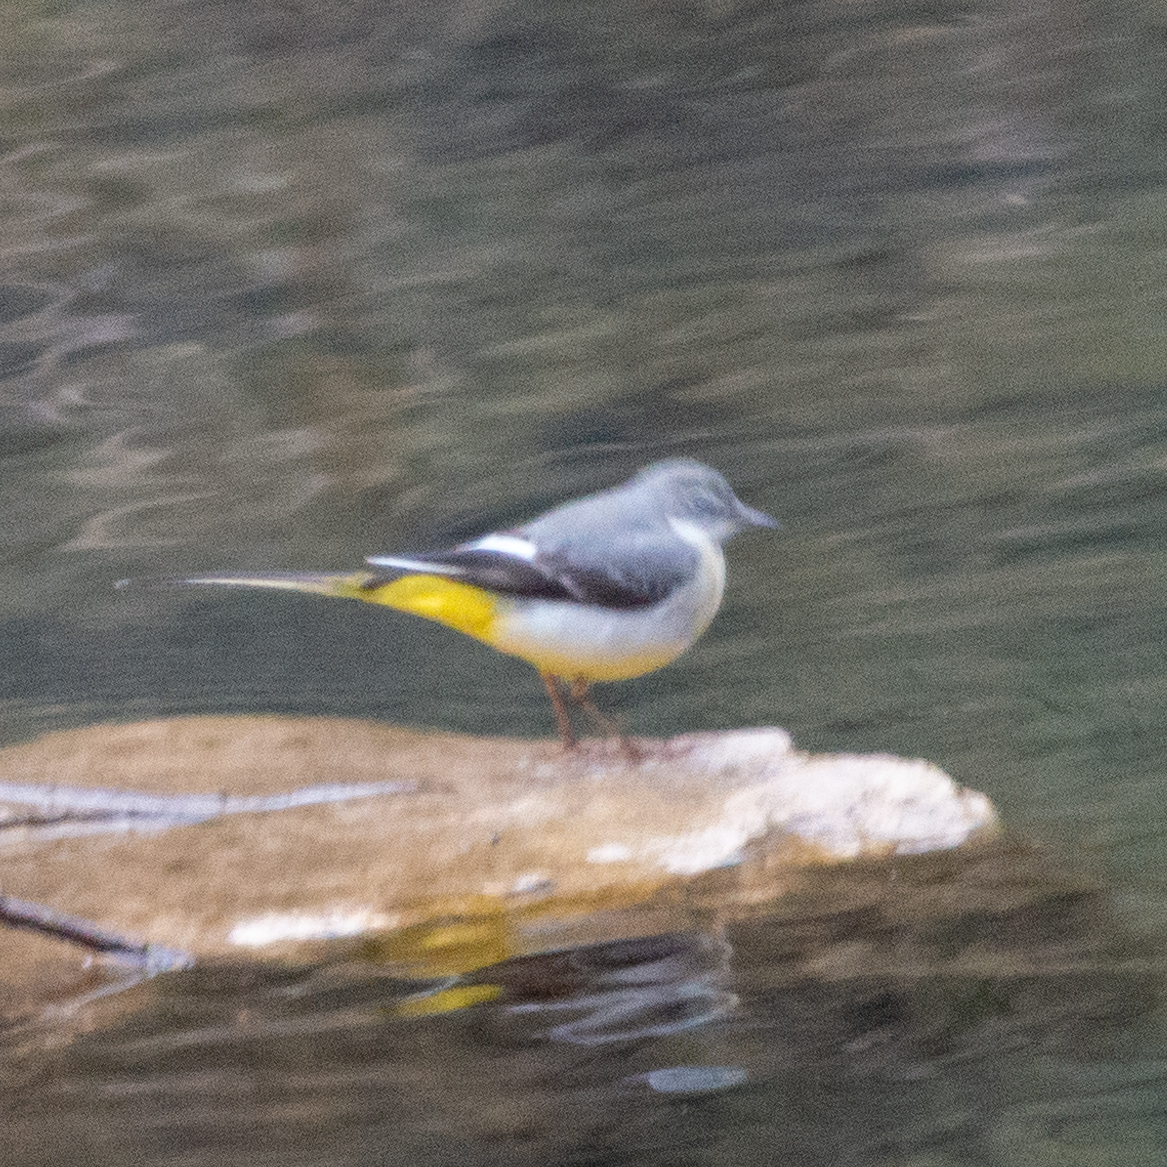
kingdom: Animalia
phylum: Chordata
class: Aves
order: Passeriformes
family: Motacillidae
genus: Motacilla
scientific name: Motacilla cinerea
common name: Grey wagtail
